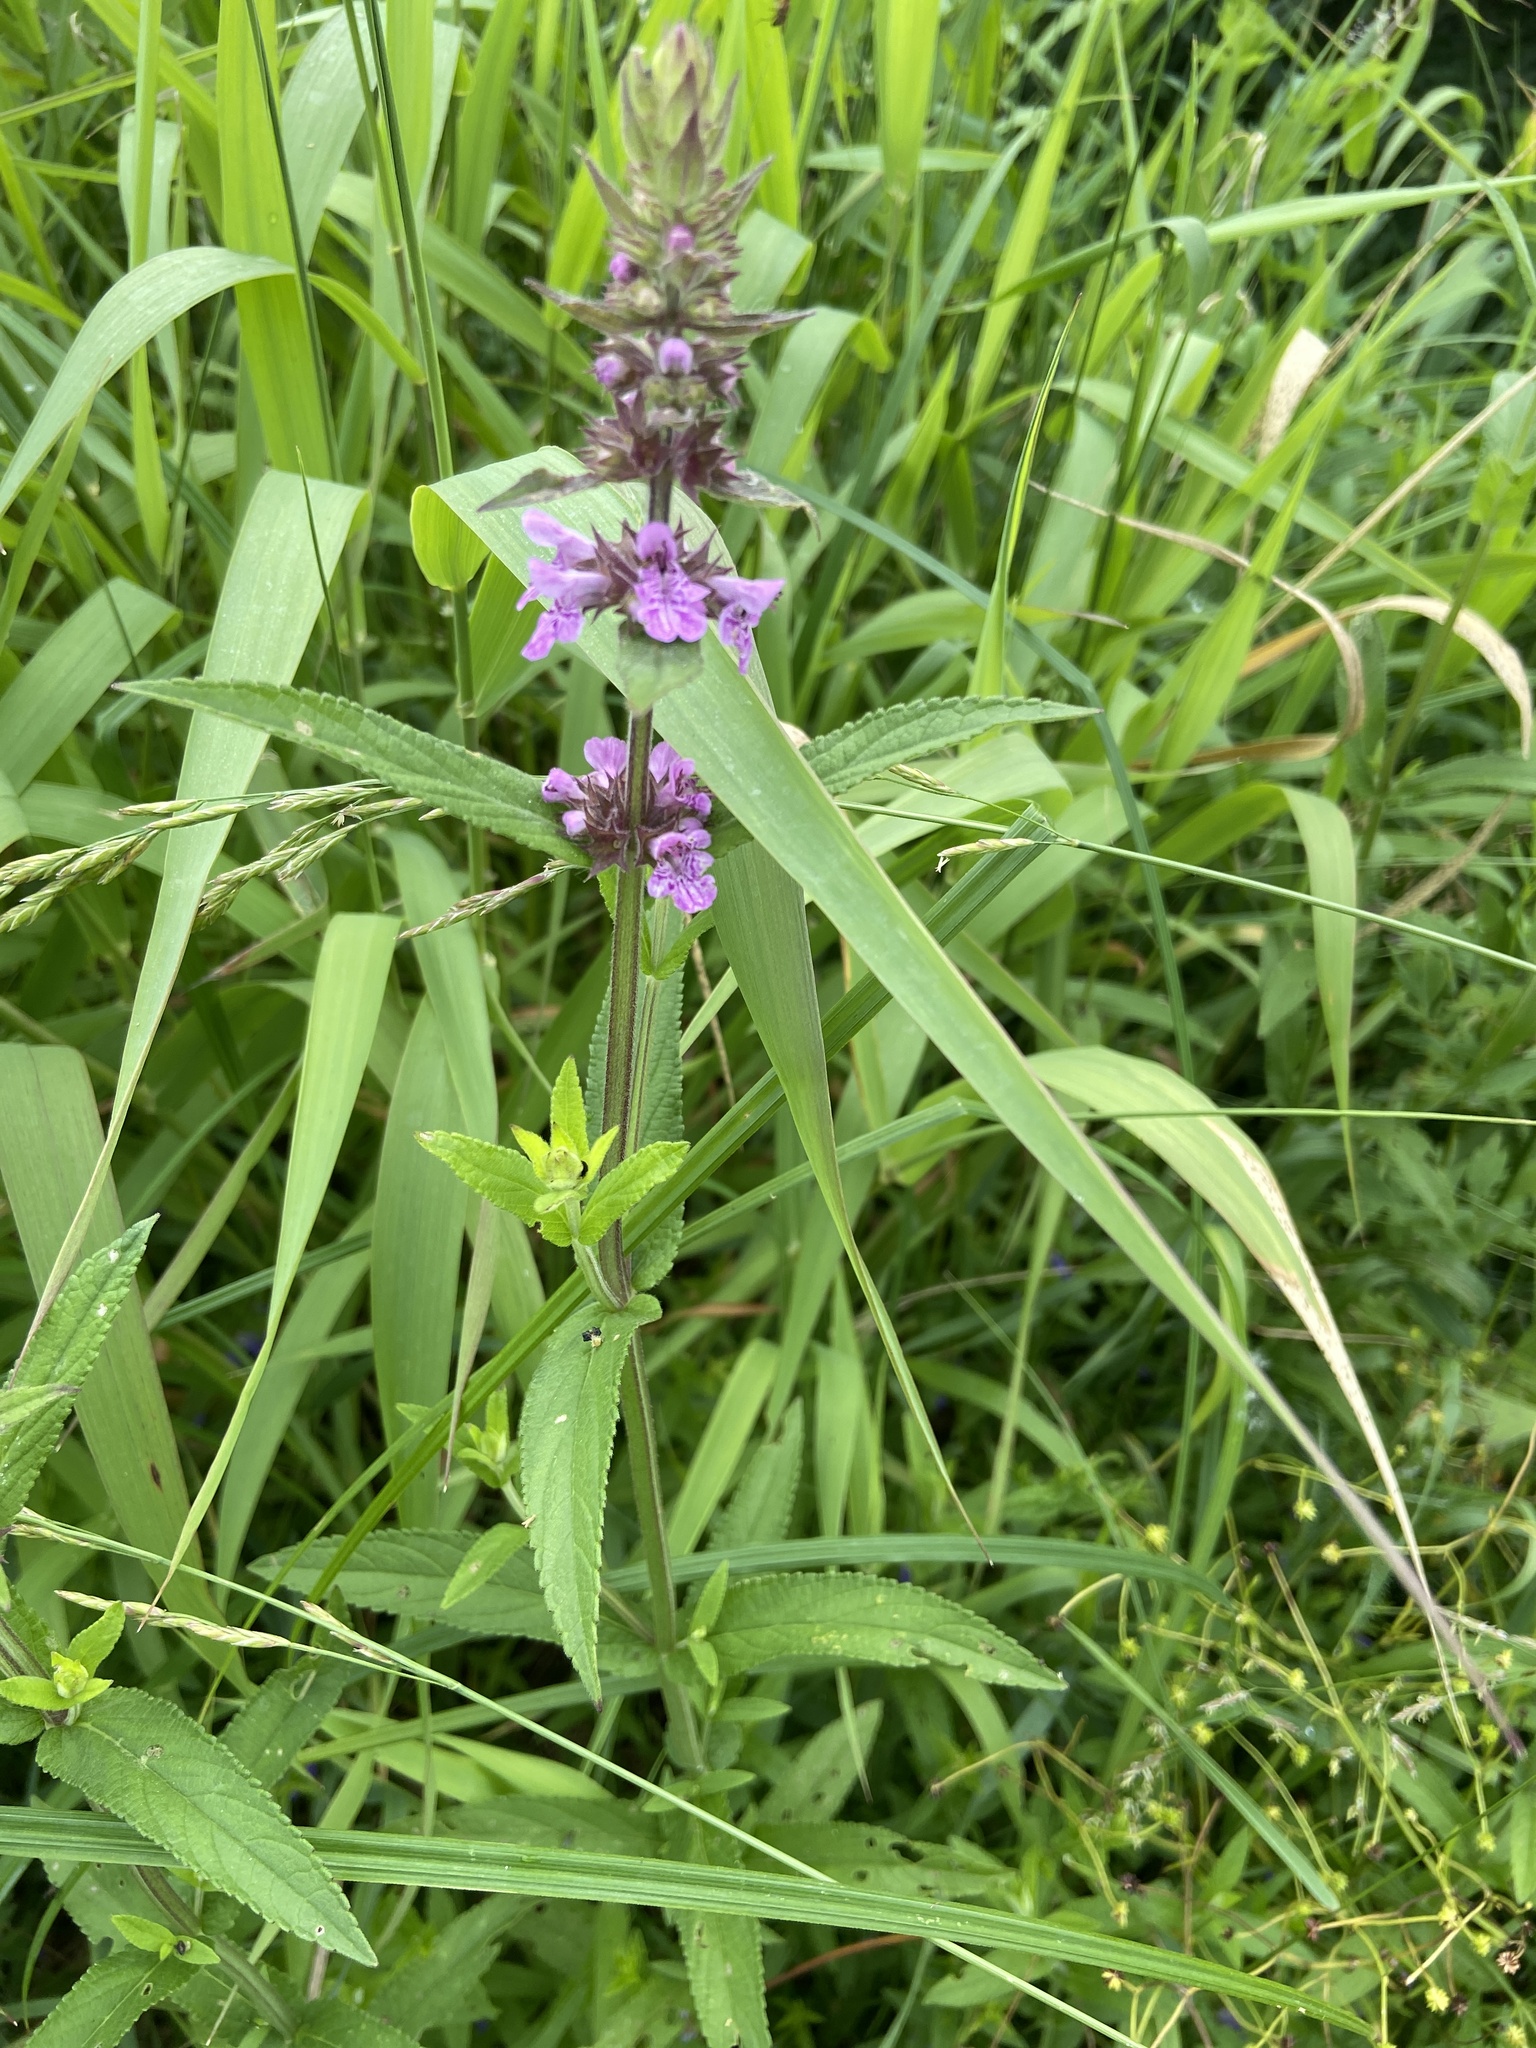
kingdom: Plantae
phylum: Tracheophyta
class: Magnoliopsida
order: Lamiales
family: Lamiaceae
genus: Stachys
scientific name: Stachys palustris
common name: Marsh woundwort
